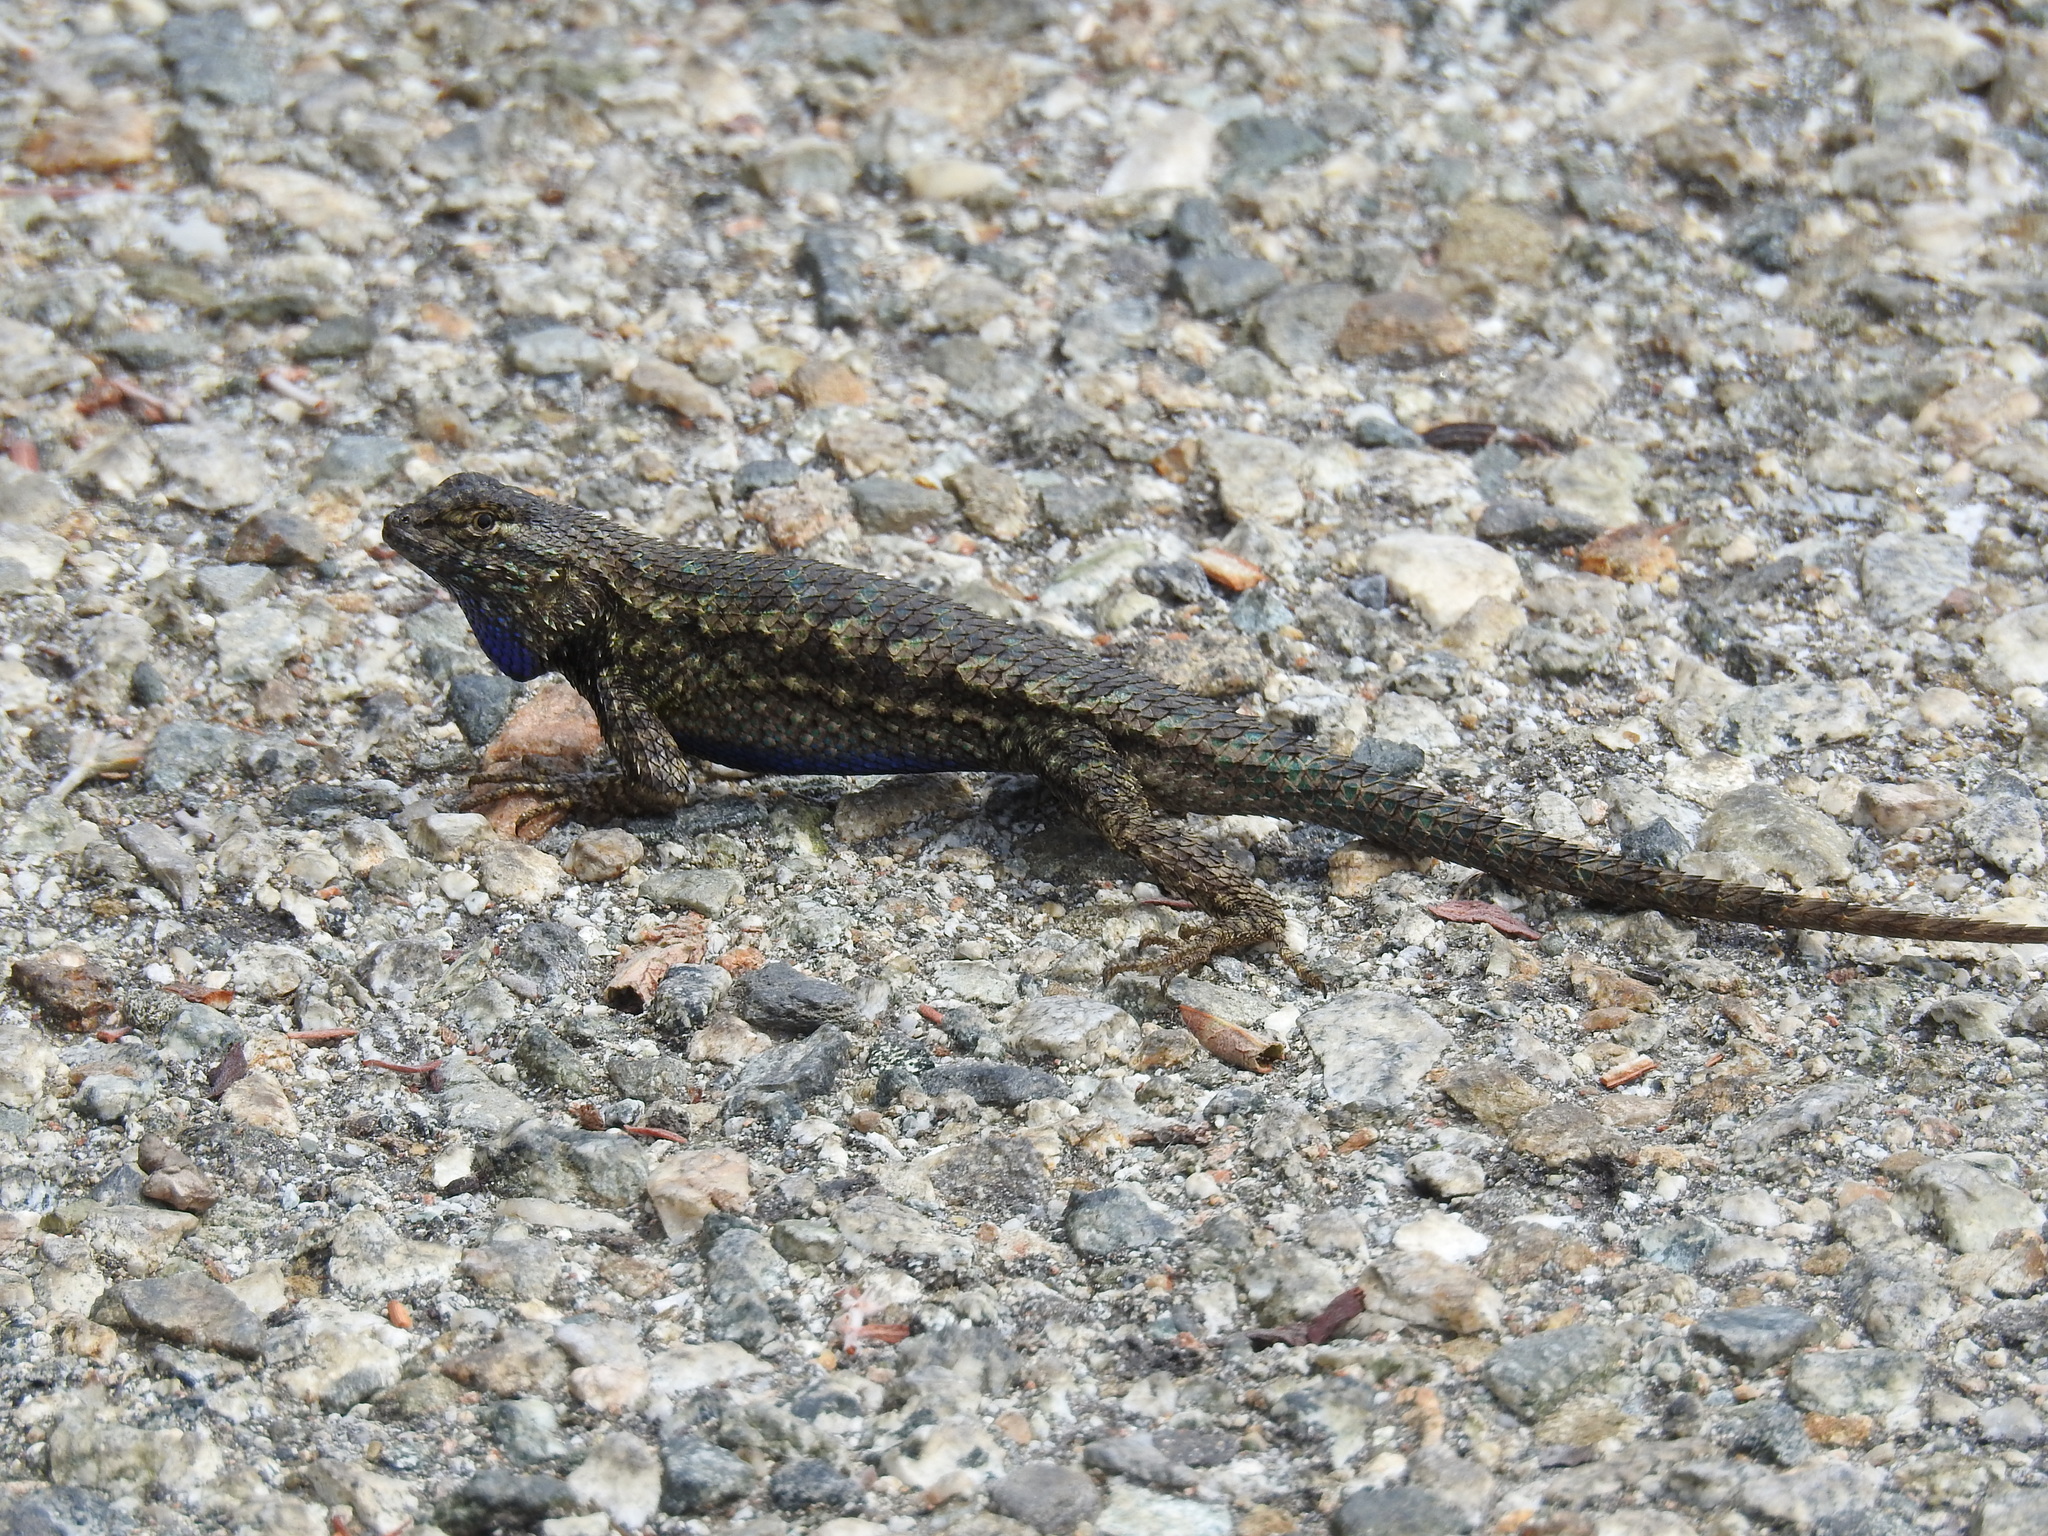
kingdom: Animalia
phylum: Chordata
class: Squamata
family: Phrynosomatidae
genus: Sceloporus
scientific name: Sceloporus occidentalis
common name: Western fence lizard
